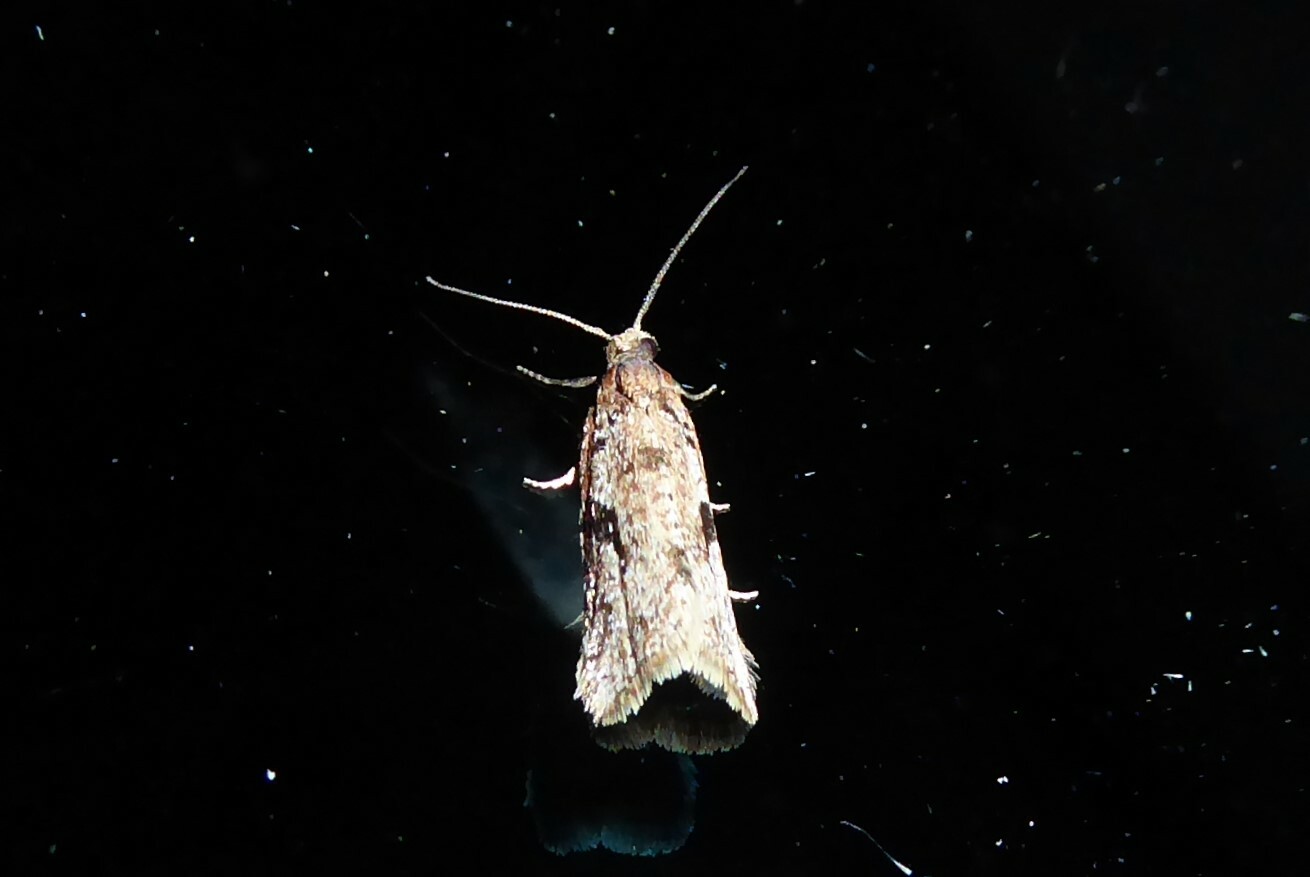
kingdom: Animalia
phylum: Arthropoda
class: Insecta
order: Lepidoptera
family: Tortricidae
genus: Capua
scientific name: Capua semiferana
